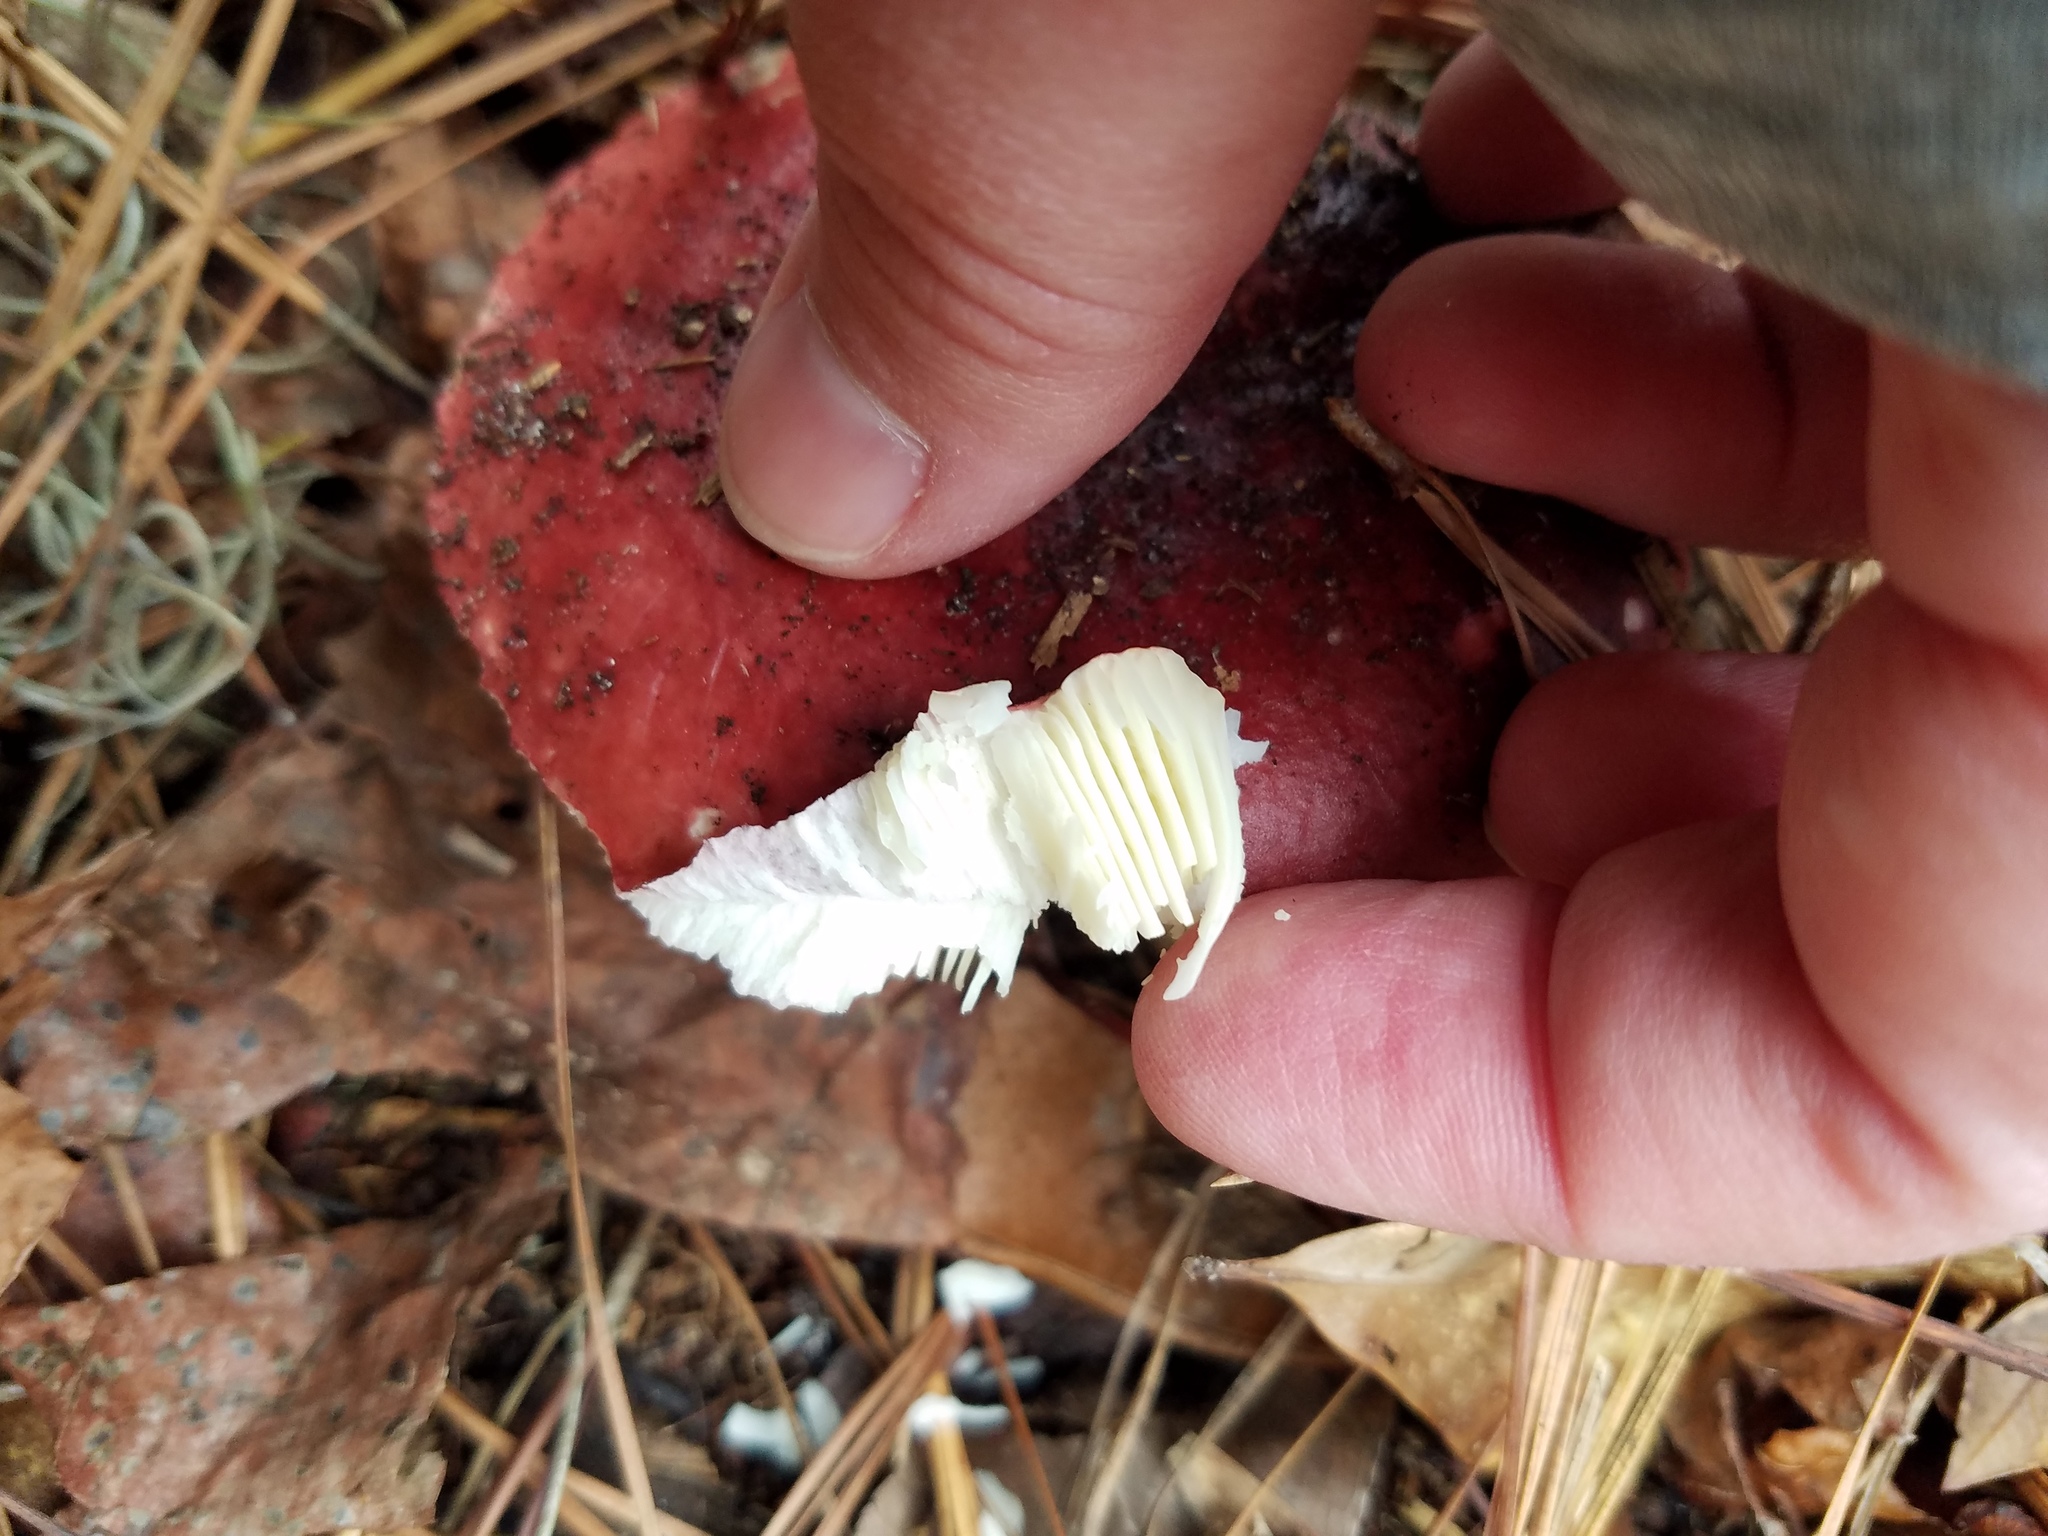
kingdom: Fungi
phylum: Basidiomycota
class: Agaricomycetes
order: Russulales
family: Russulaceae
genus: Russula
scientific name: Russula
